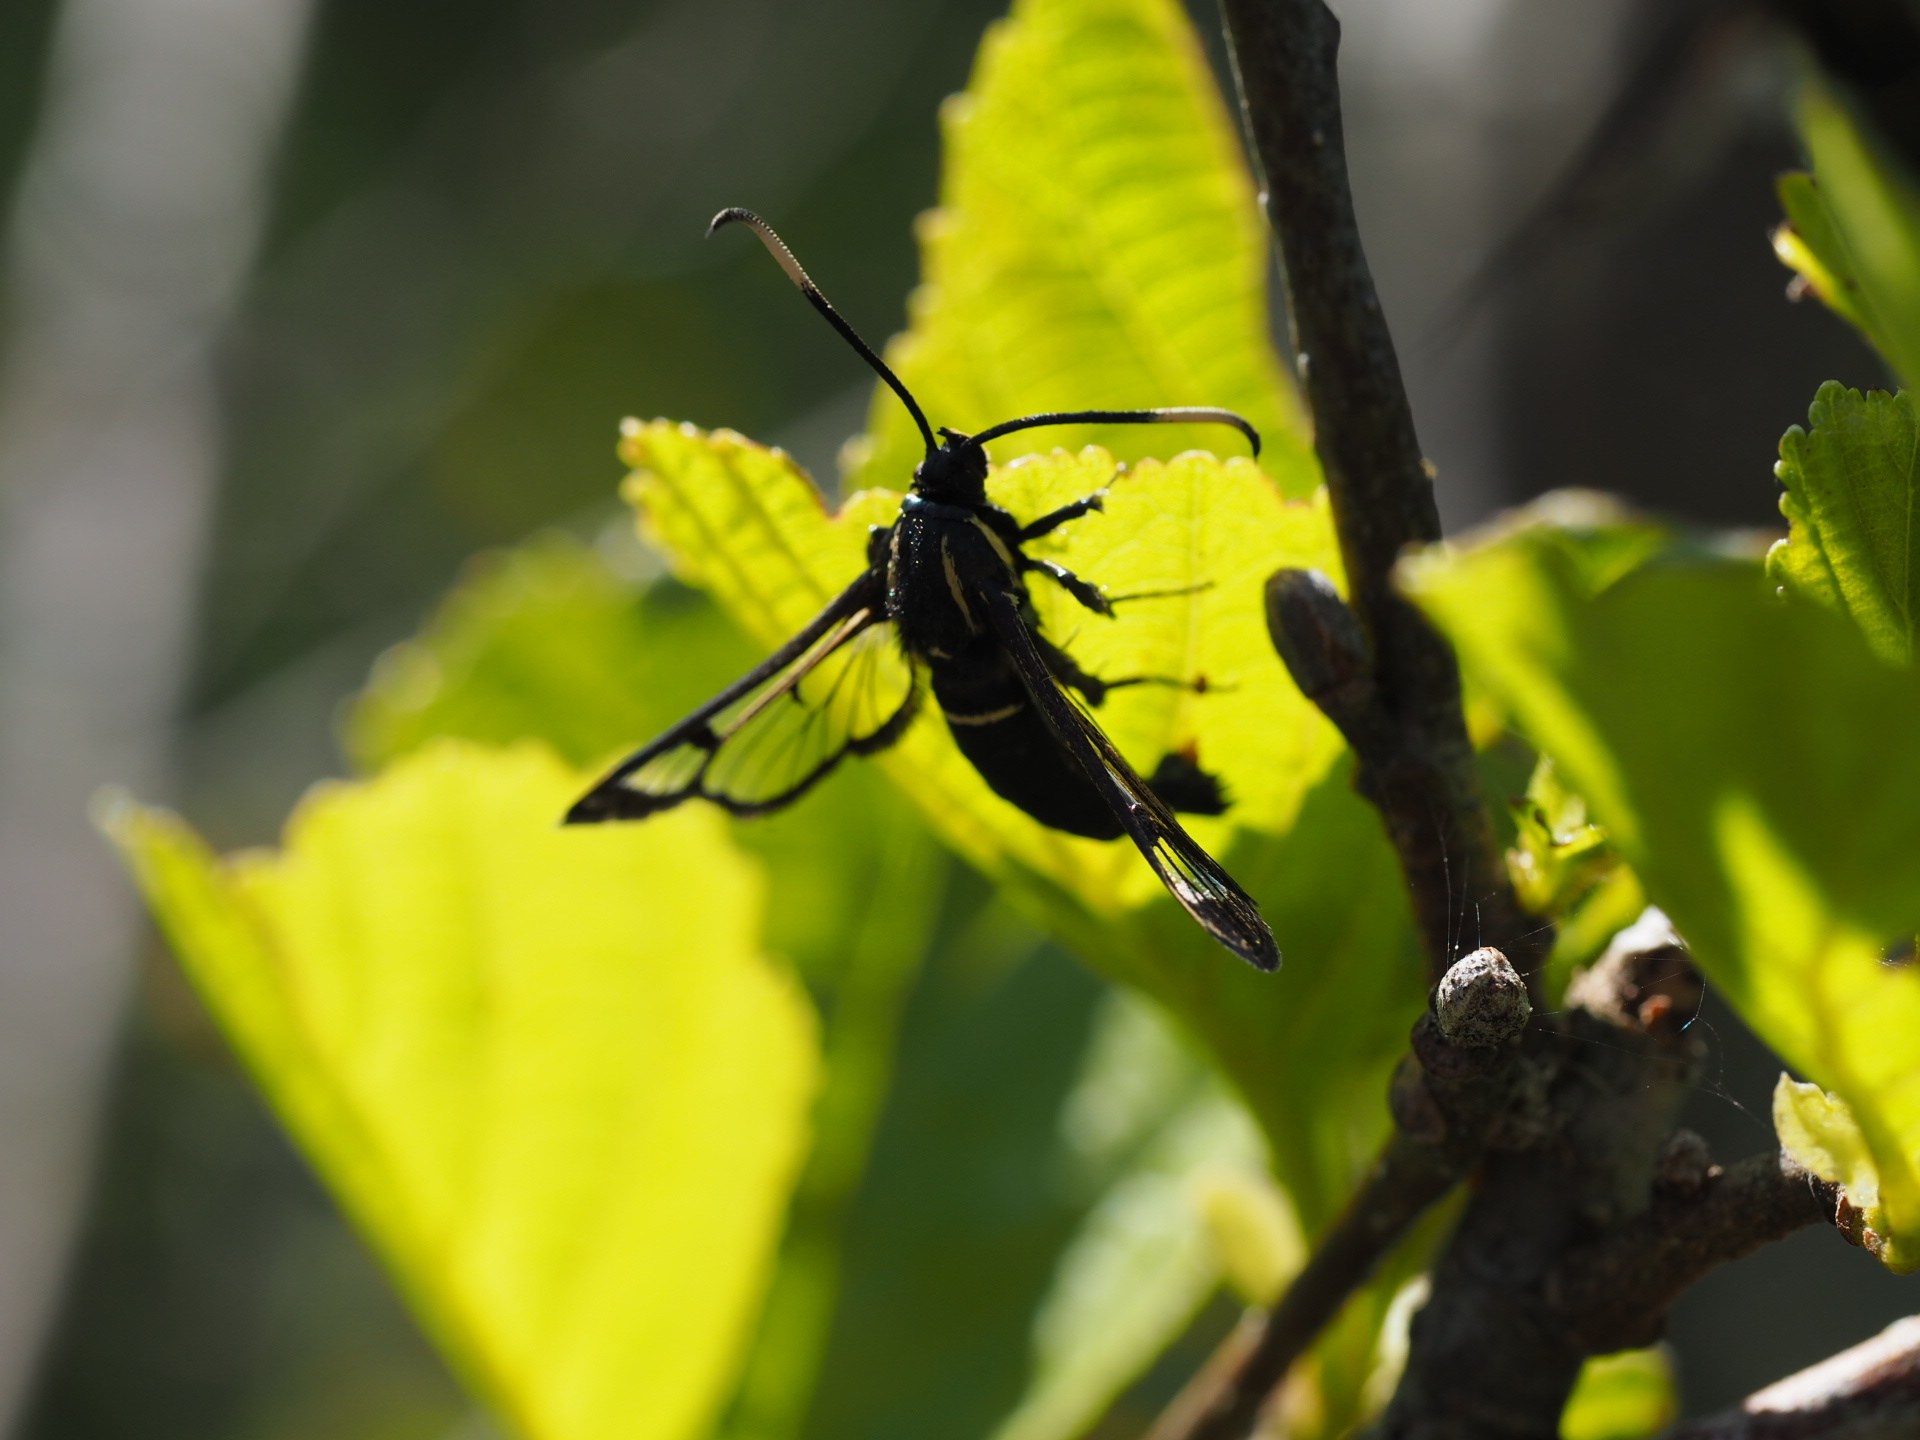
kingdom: Animalia
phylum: Arthropoda
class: Insecta
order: Lepidoptera
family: Sesiidae
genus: Synanthedon
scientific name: Synanthedon spheciformis
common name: White-barred clearwing
